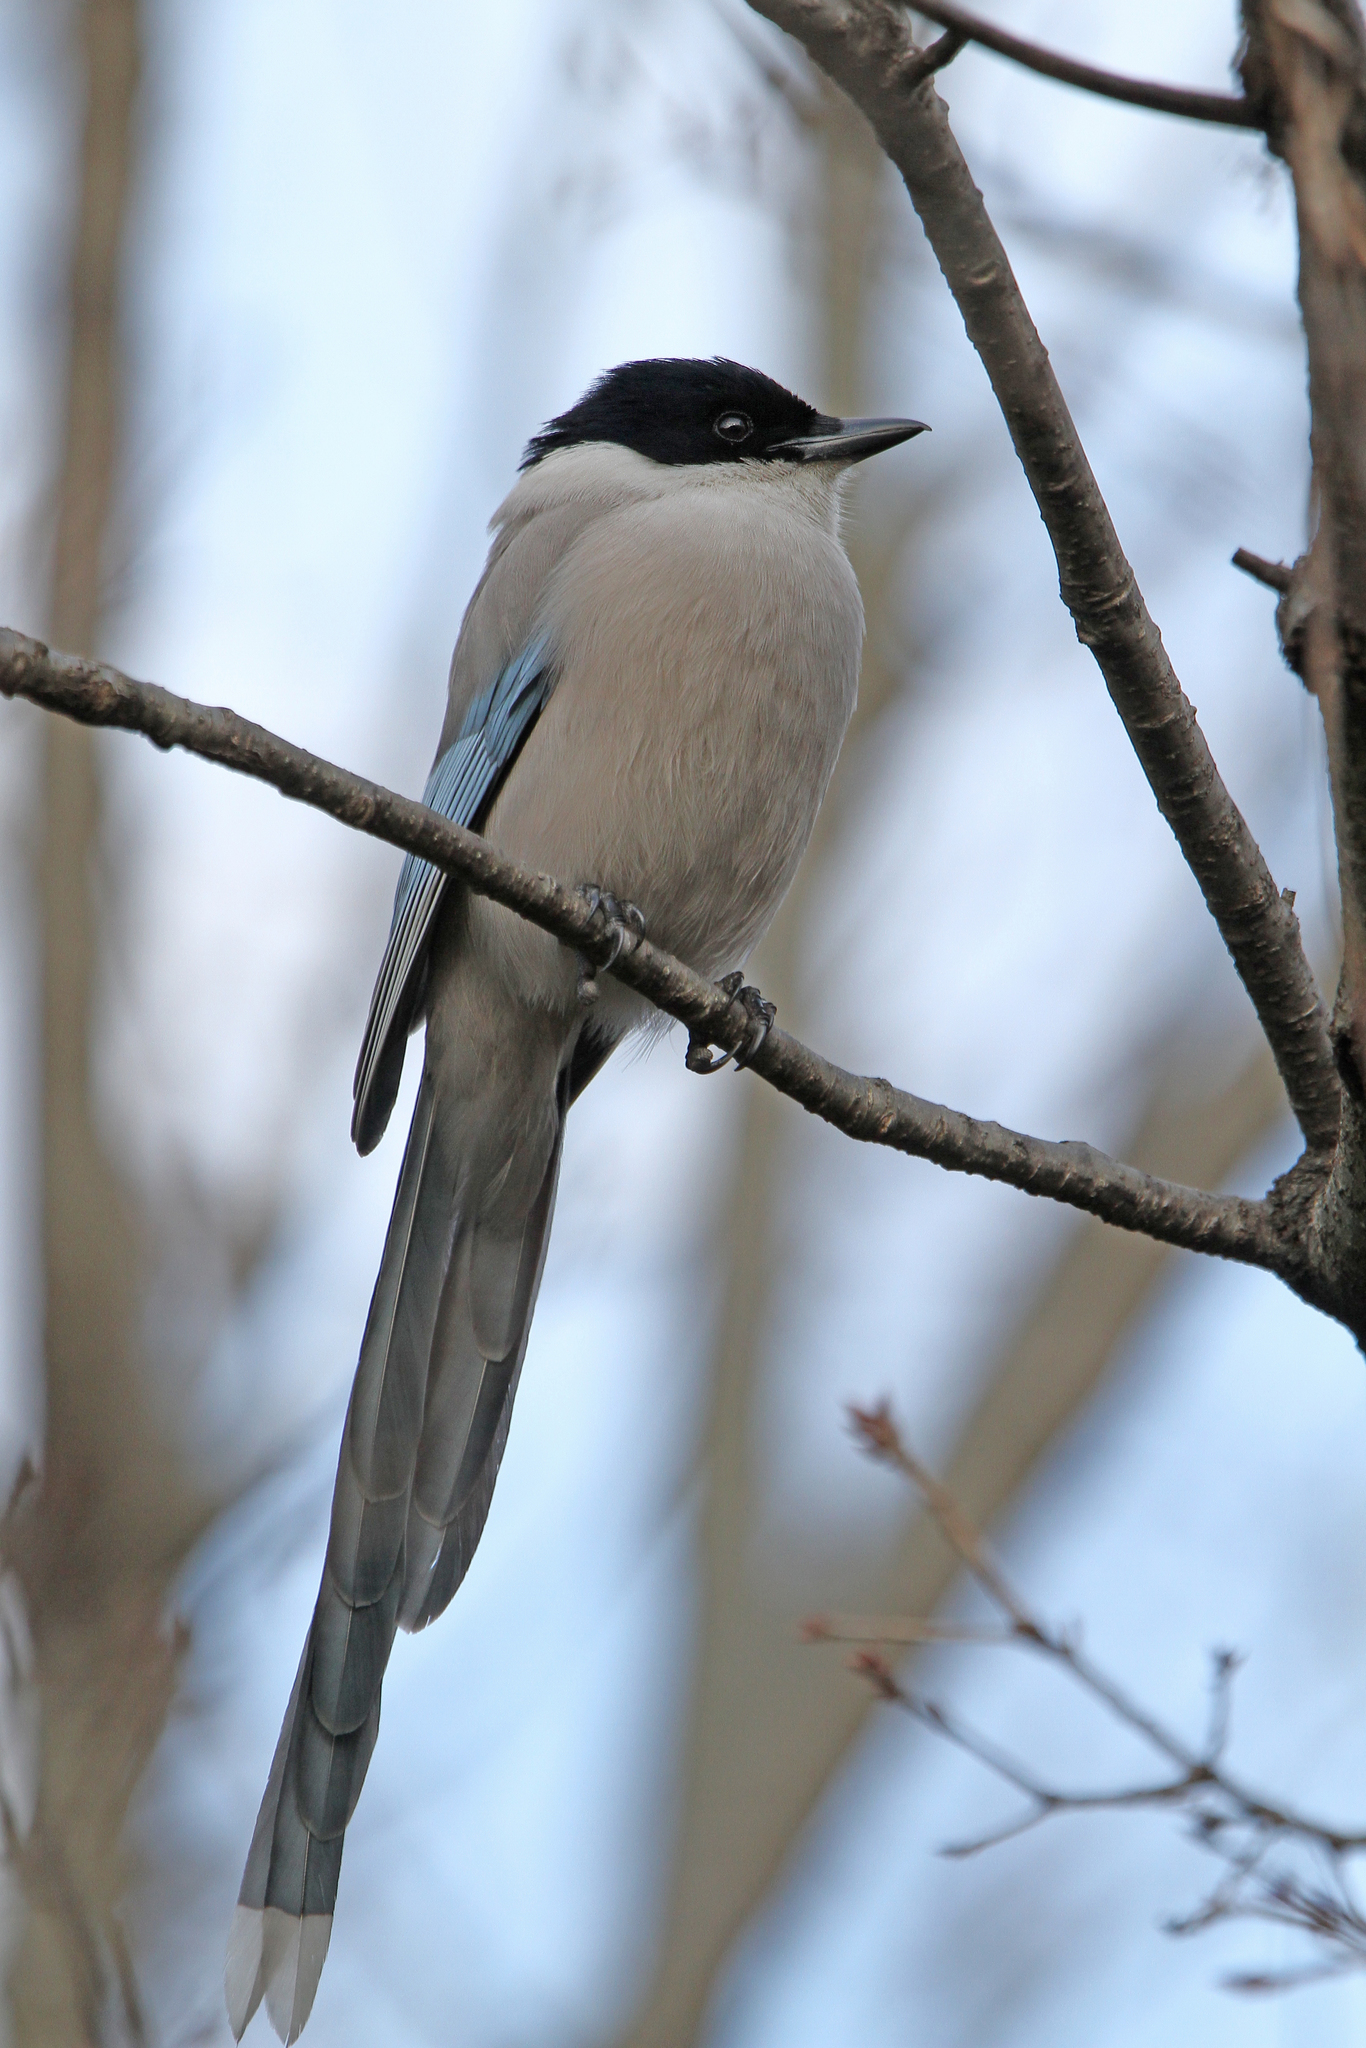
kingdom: Animalia
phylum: Chordata
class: Aves
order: Passeriformes
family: Corvidae
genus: Cyanopica
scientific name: Cyanopica cyanus
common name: Azure-winged magpie
